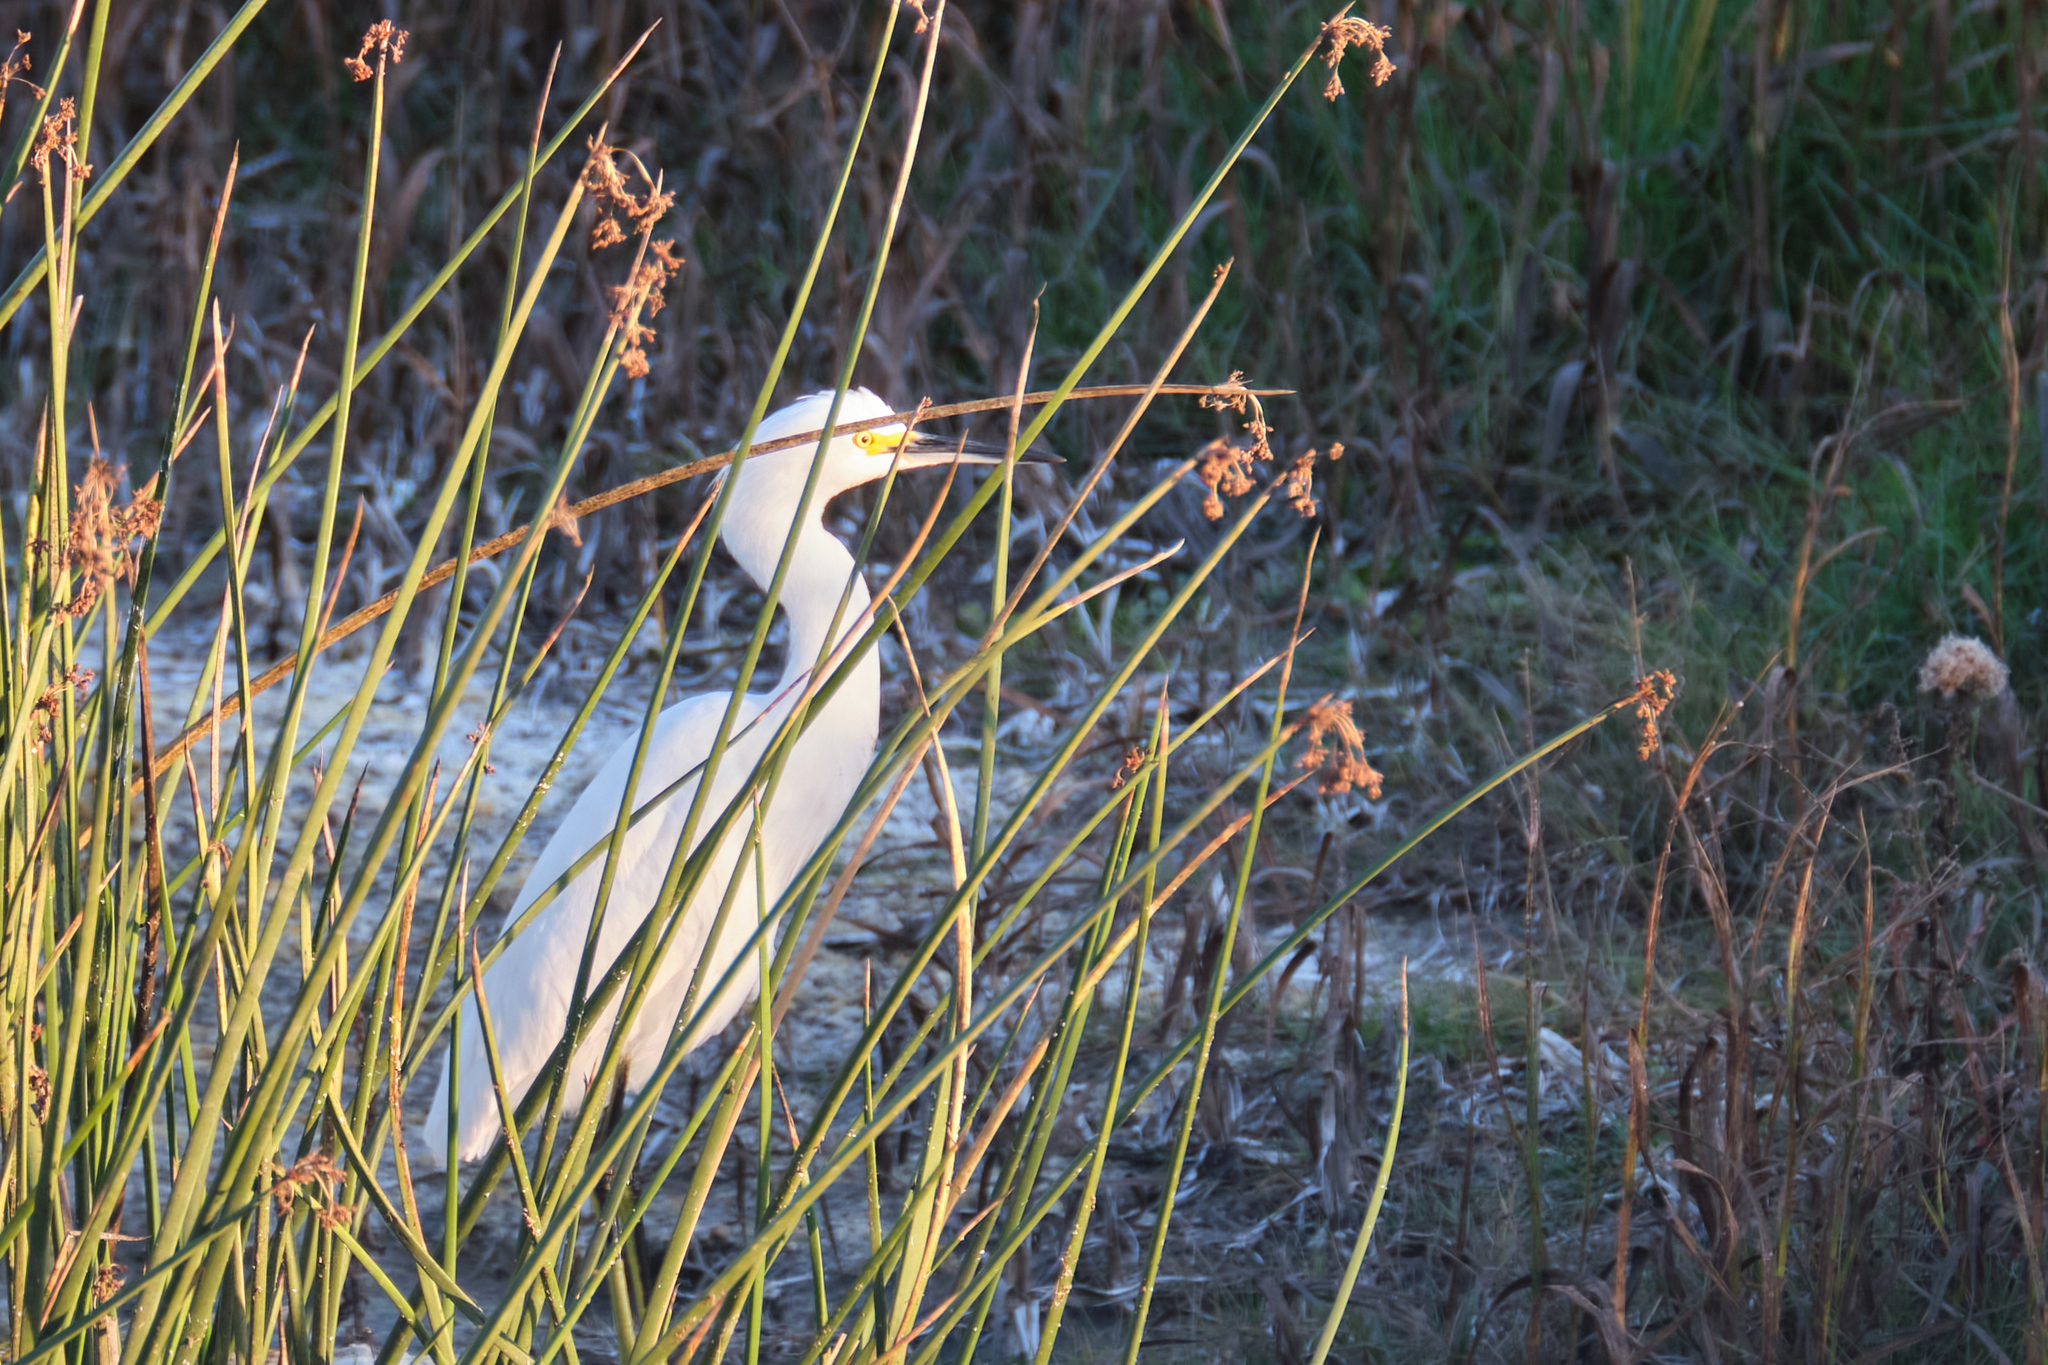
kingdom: Animalia
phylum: Chordata
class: Aves
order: Pelecaniformes
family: Ardeidae
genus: Egretta
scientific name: Egretta thula
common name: Snowy egret
